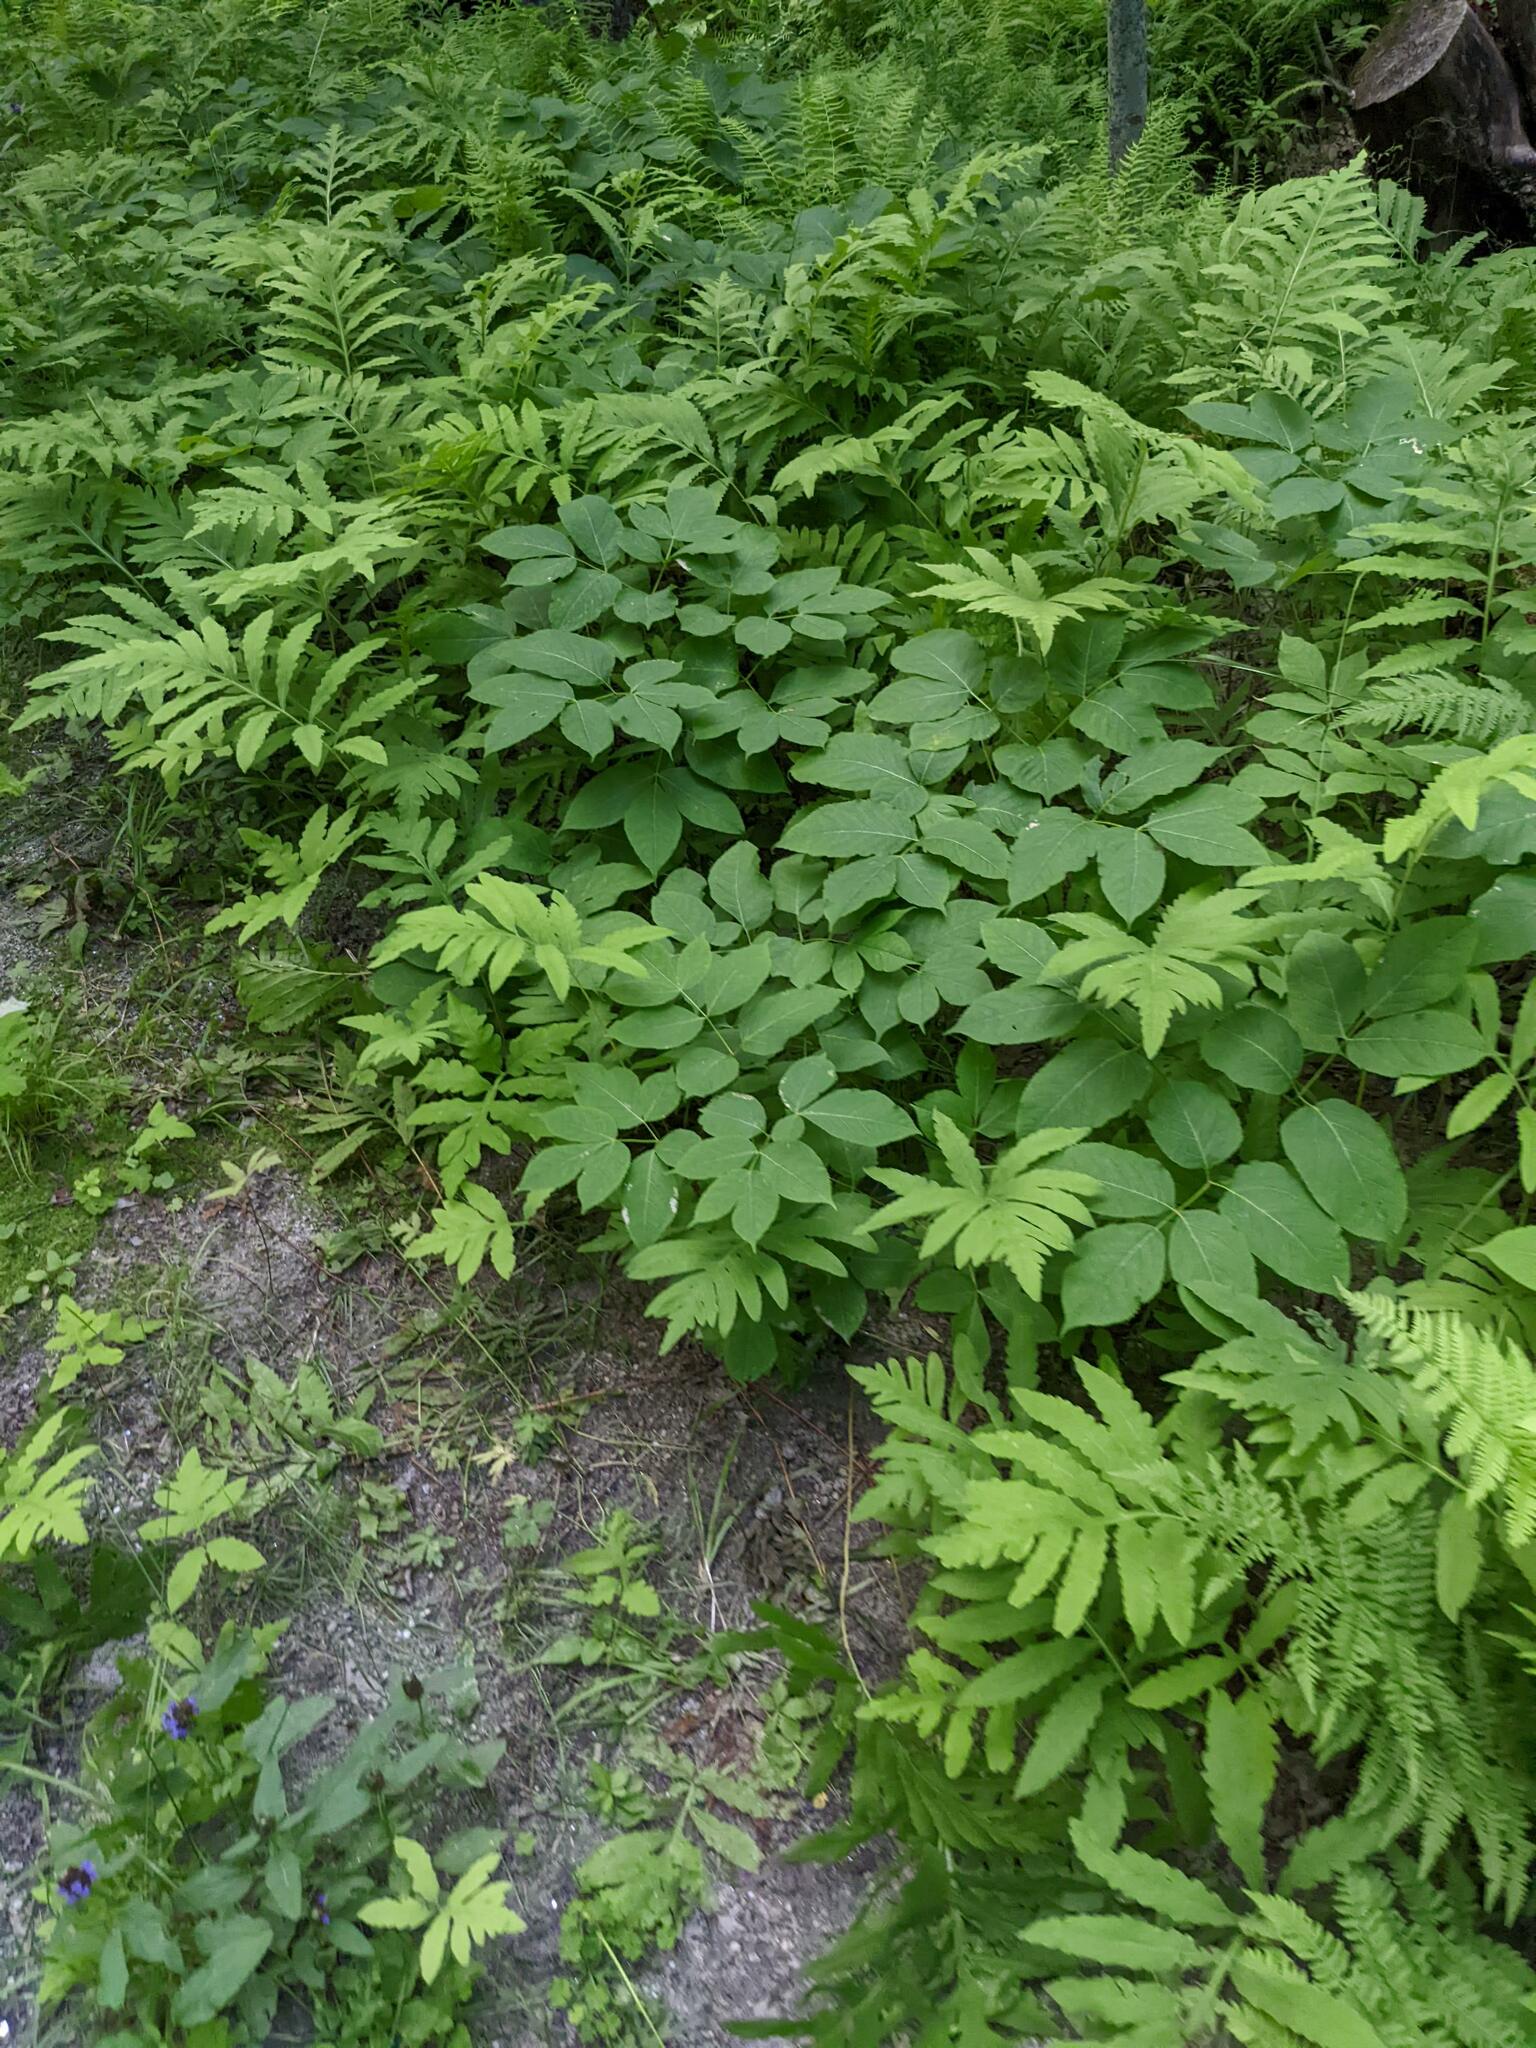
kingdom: Plantae
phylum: Tracheophyta
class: Magnoliopsida
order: Apiales
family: Araliaceae
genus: Aralia
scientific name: Aralia nudicaulis
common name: Wild sarsaparilla
